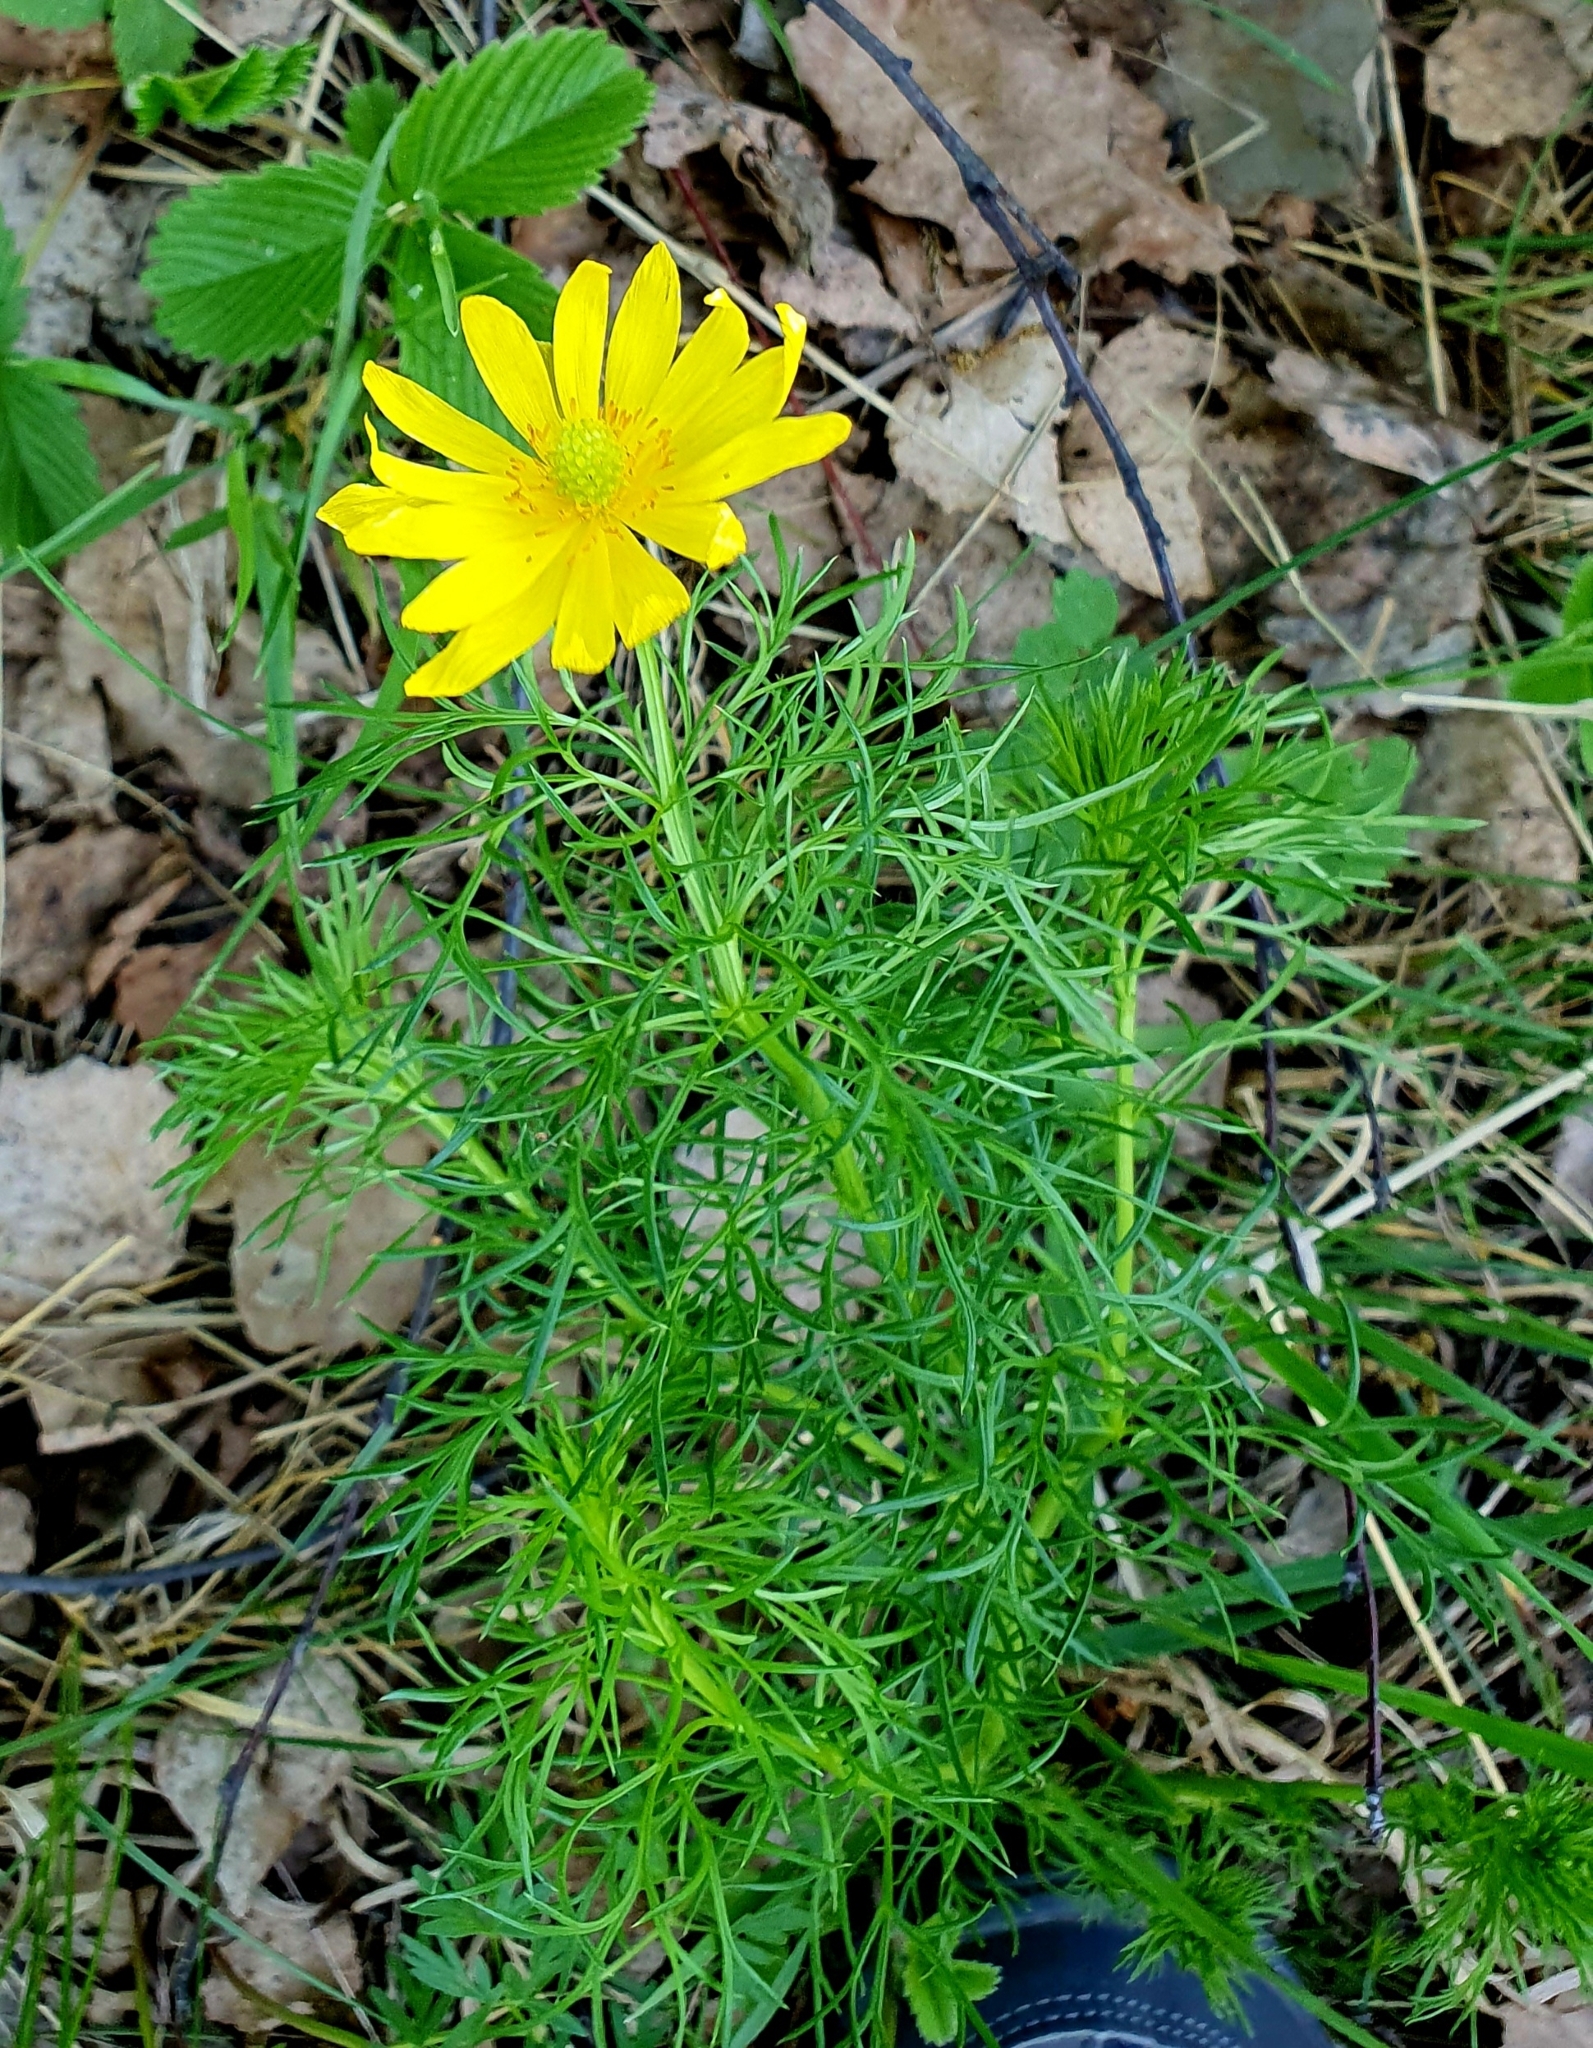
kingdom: Plantae
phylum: Tracheophyta
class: Magnoliopsida
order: Ranunculales
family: Ranunculaceae
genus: Adonis
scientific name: Adonis vernalis
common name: Yellow pheasants-eye
